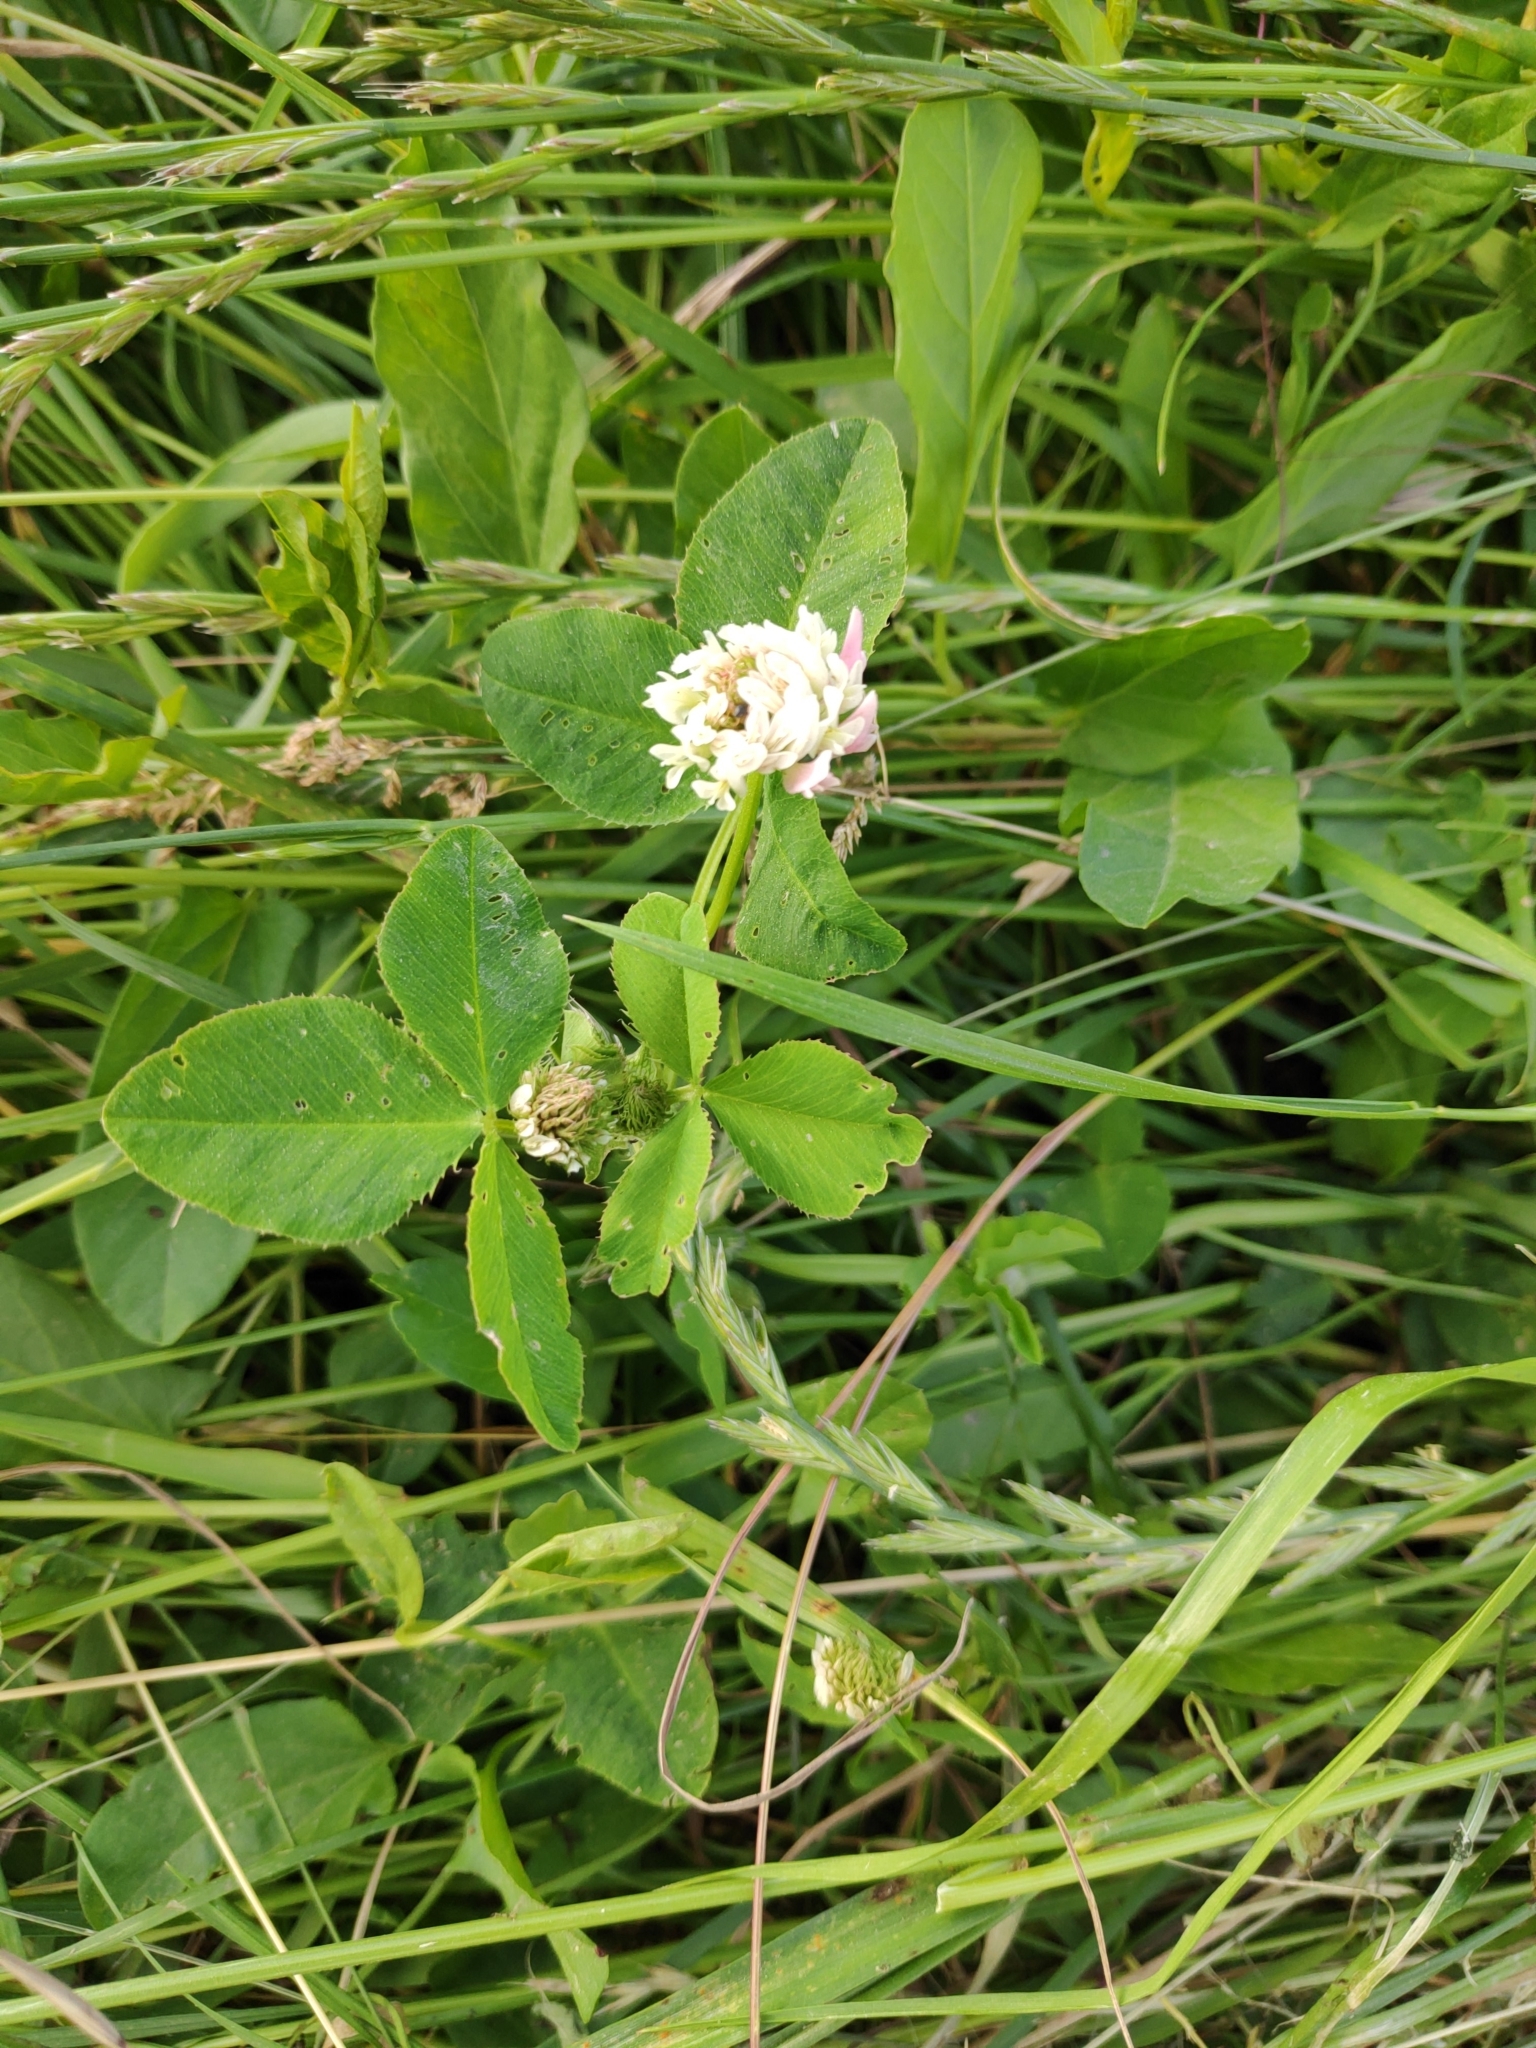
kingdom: Plantae
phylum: Tracheophyta
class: Magnoliopsida
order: Fabales
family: Fabaceae
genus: Trifolium
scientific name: Trifolium repens
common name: White clover
